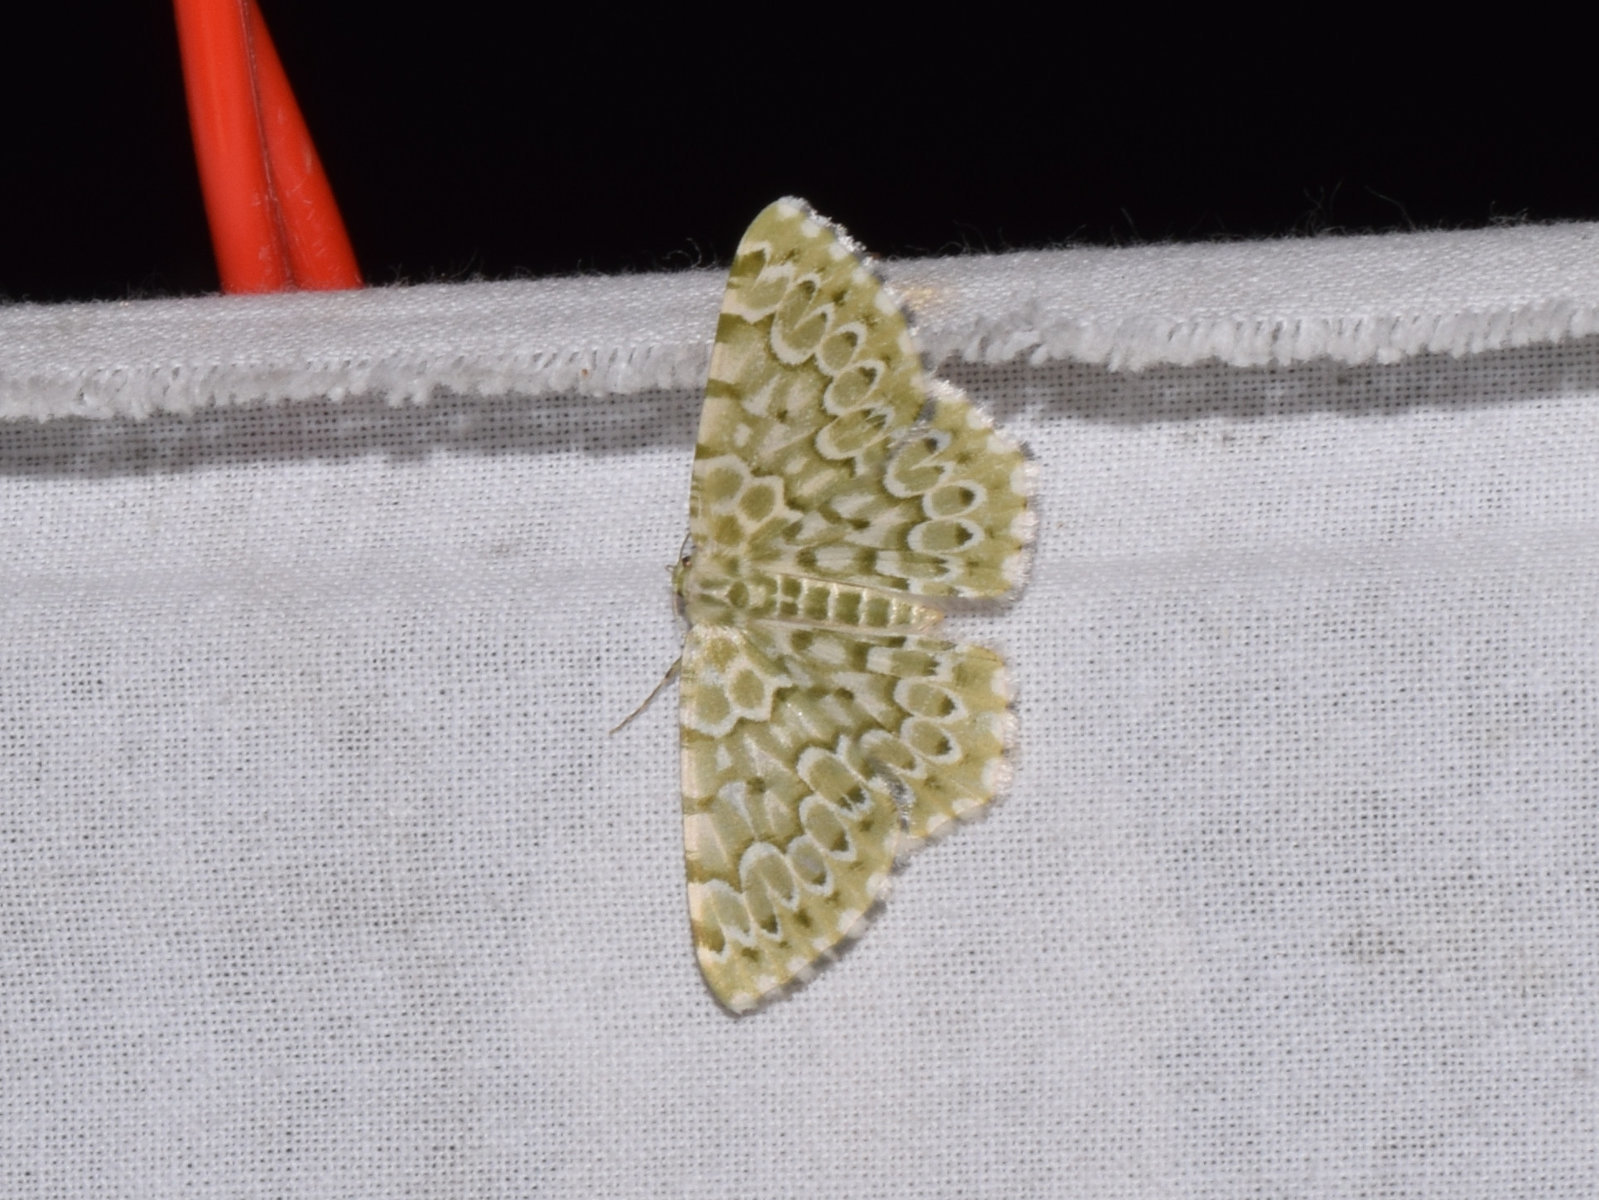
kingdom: Animalia
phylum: Arthropoda
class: Insecta
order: Lepidoptera
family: Geometridae
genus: Chlororithra
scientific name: Chlororithra fea
